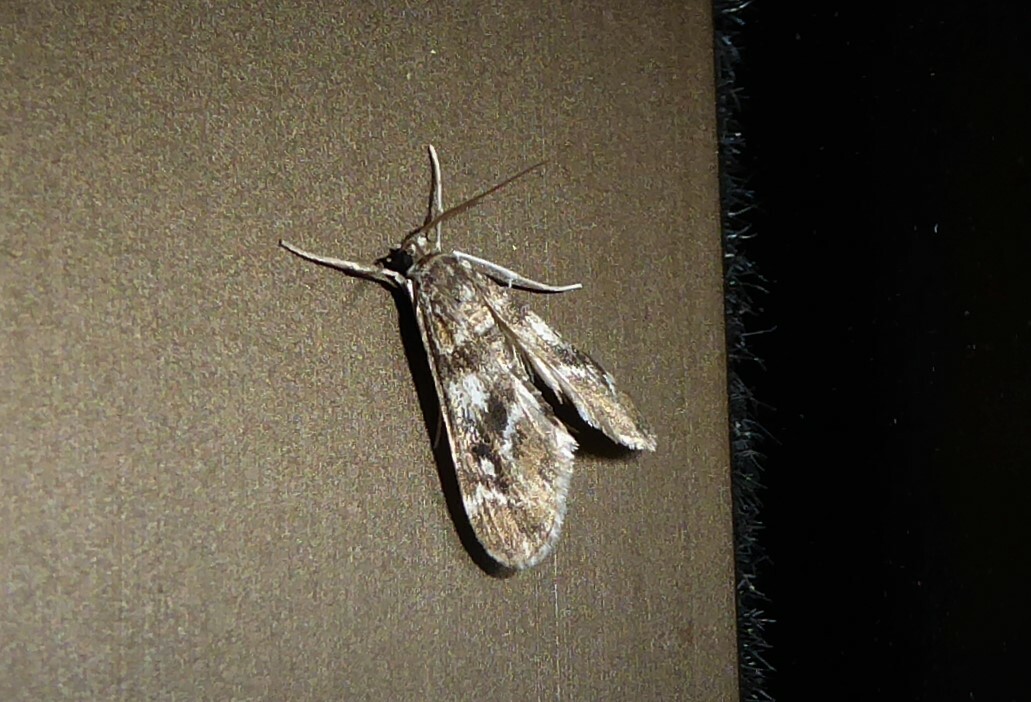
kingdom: Animalia
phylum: Arthropoda
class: Insecta
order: Lepidoptera
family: Crambidae
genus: Hygraula
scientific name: Hygraula nitens
